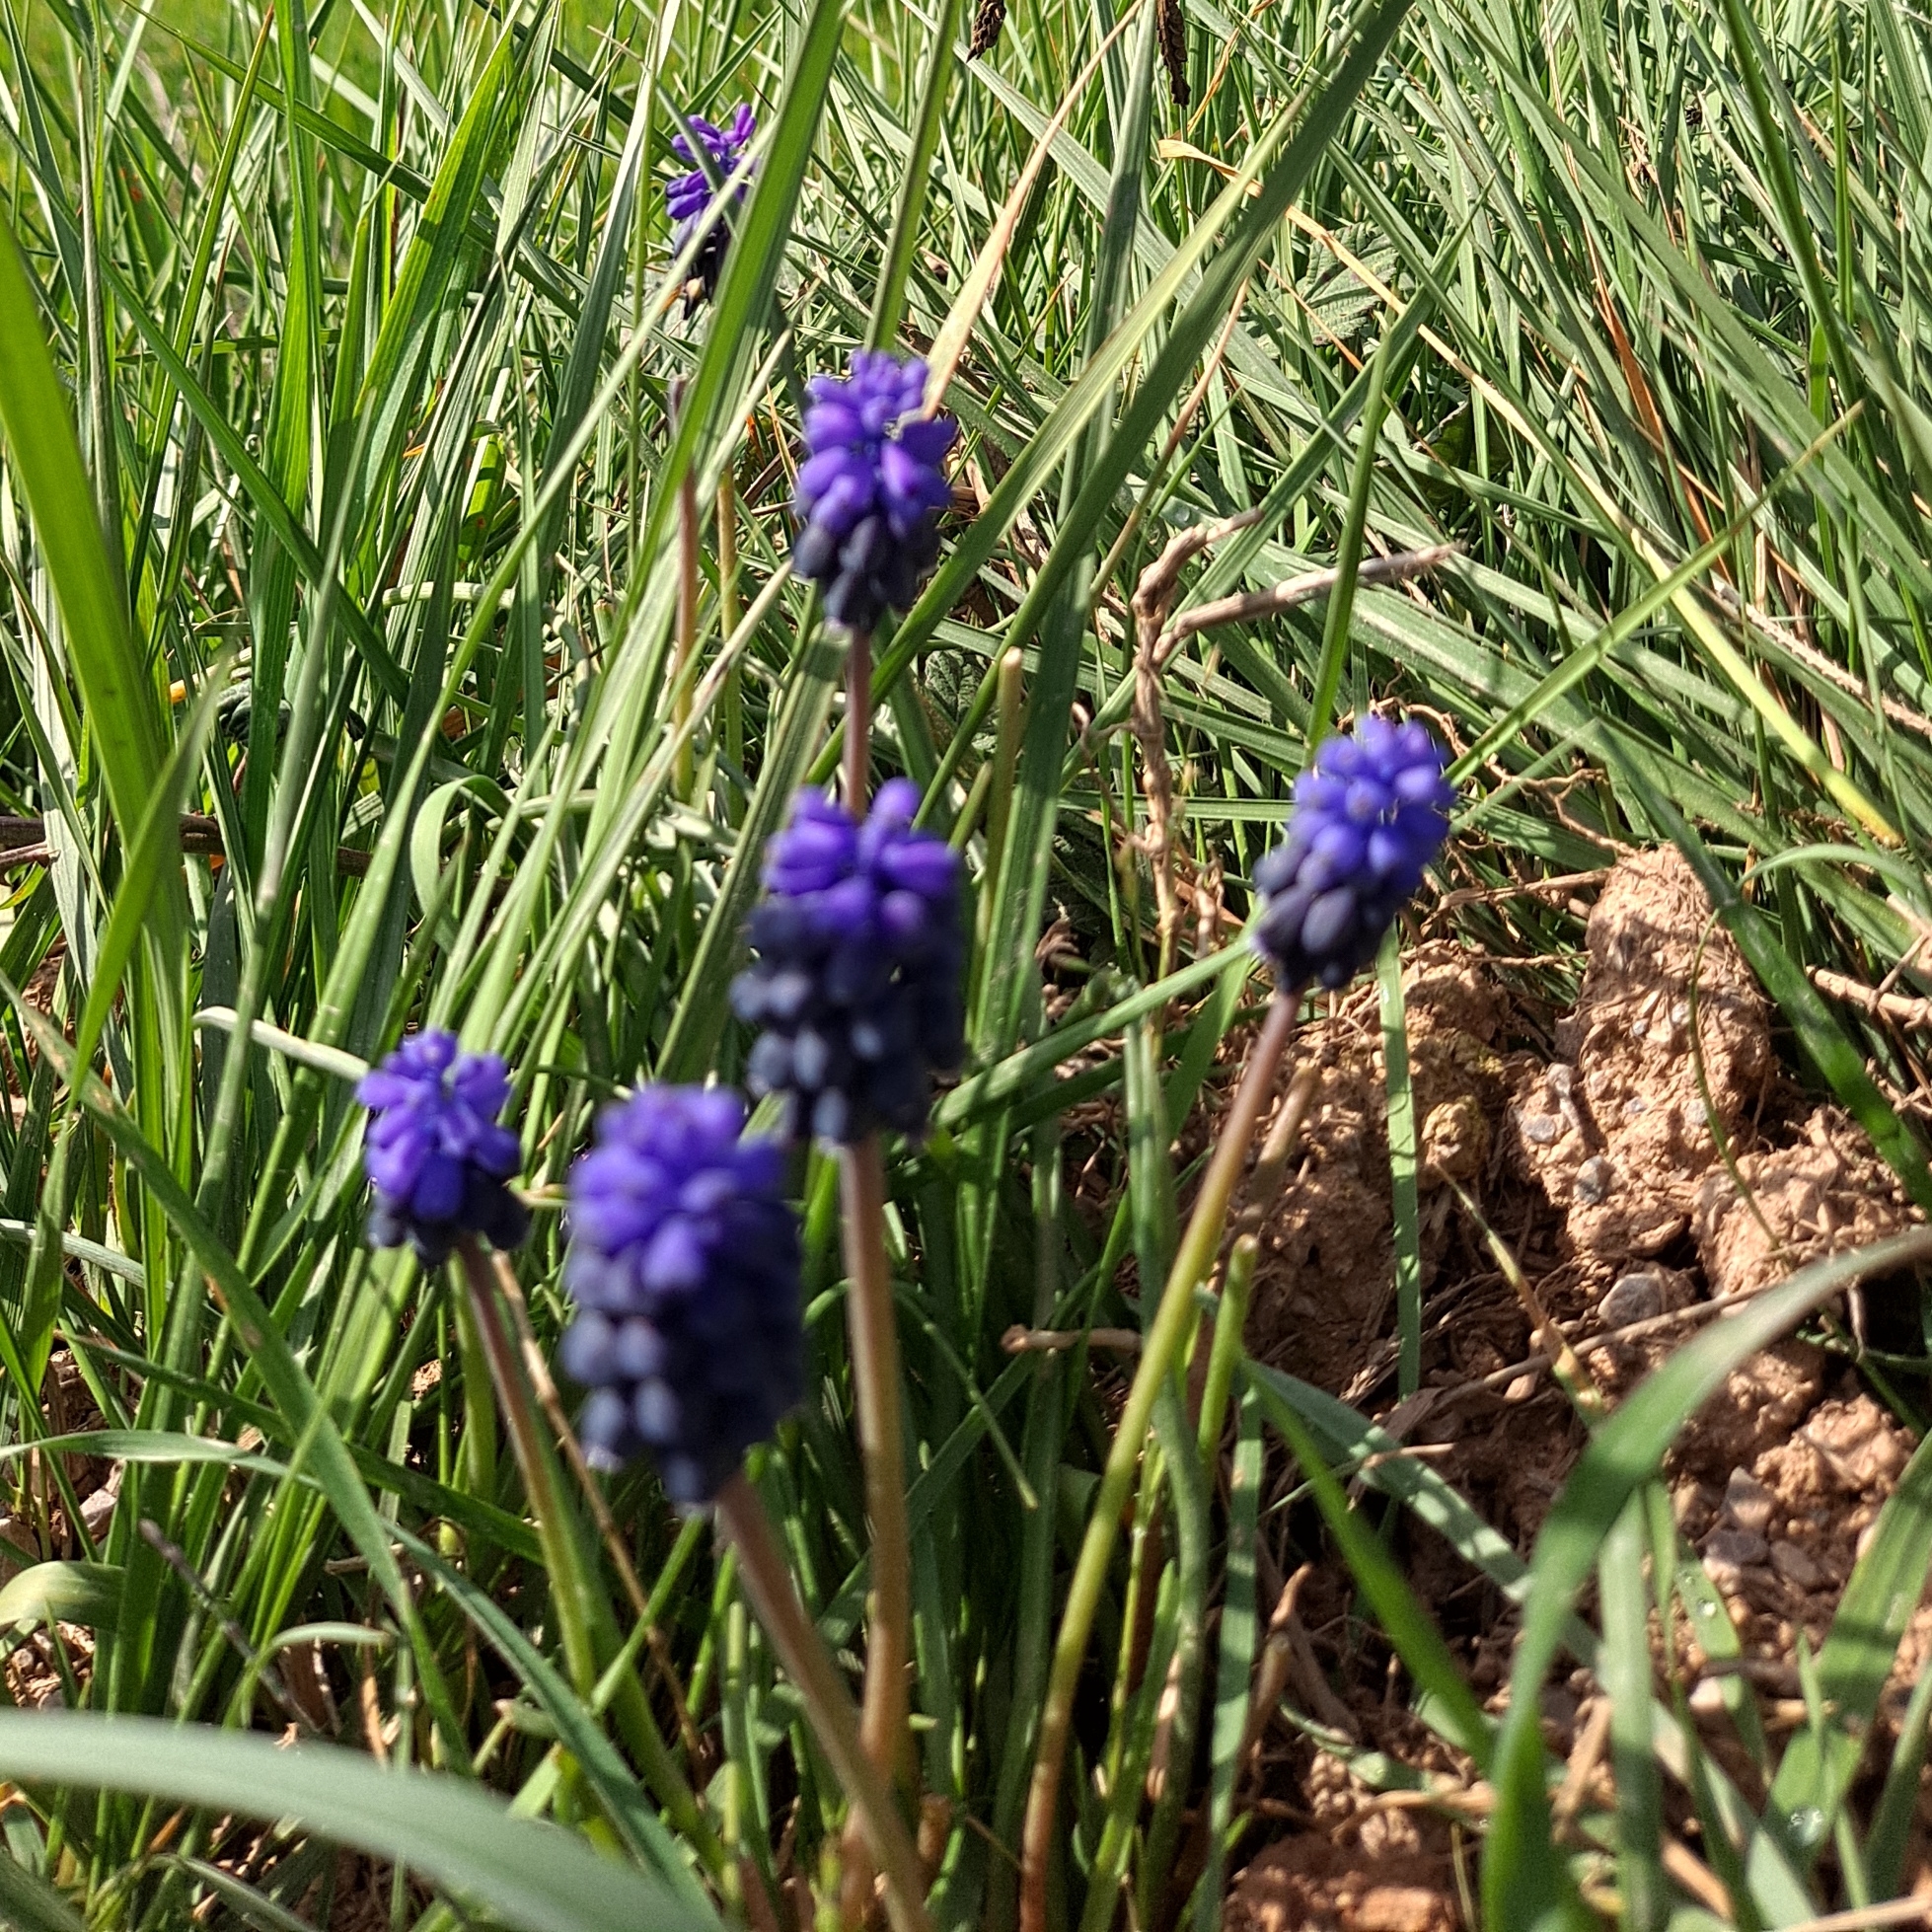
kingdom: Plantae
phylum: Tracheophyta
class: Liliopsida
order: Asparagales
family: Asparagaceae
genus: Muscari
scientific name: Muscari neglectum
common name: Grape-hyacinth
